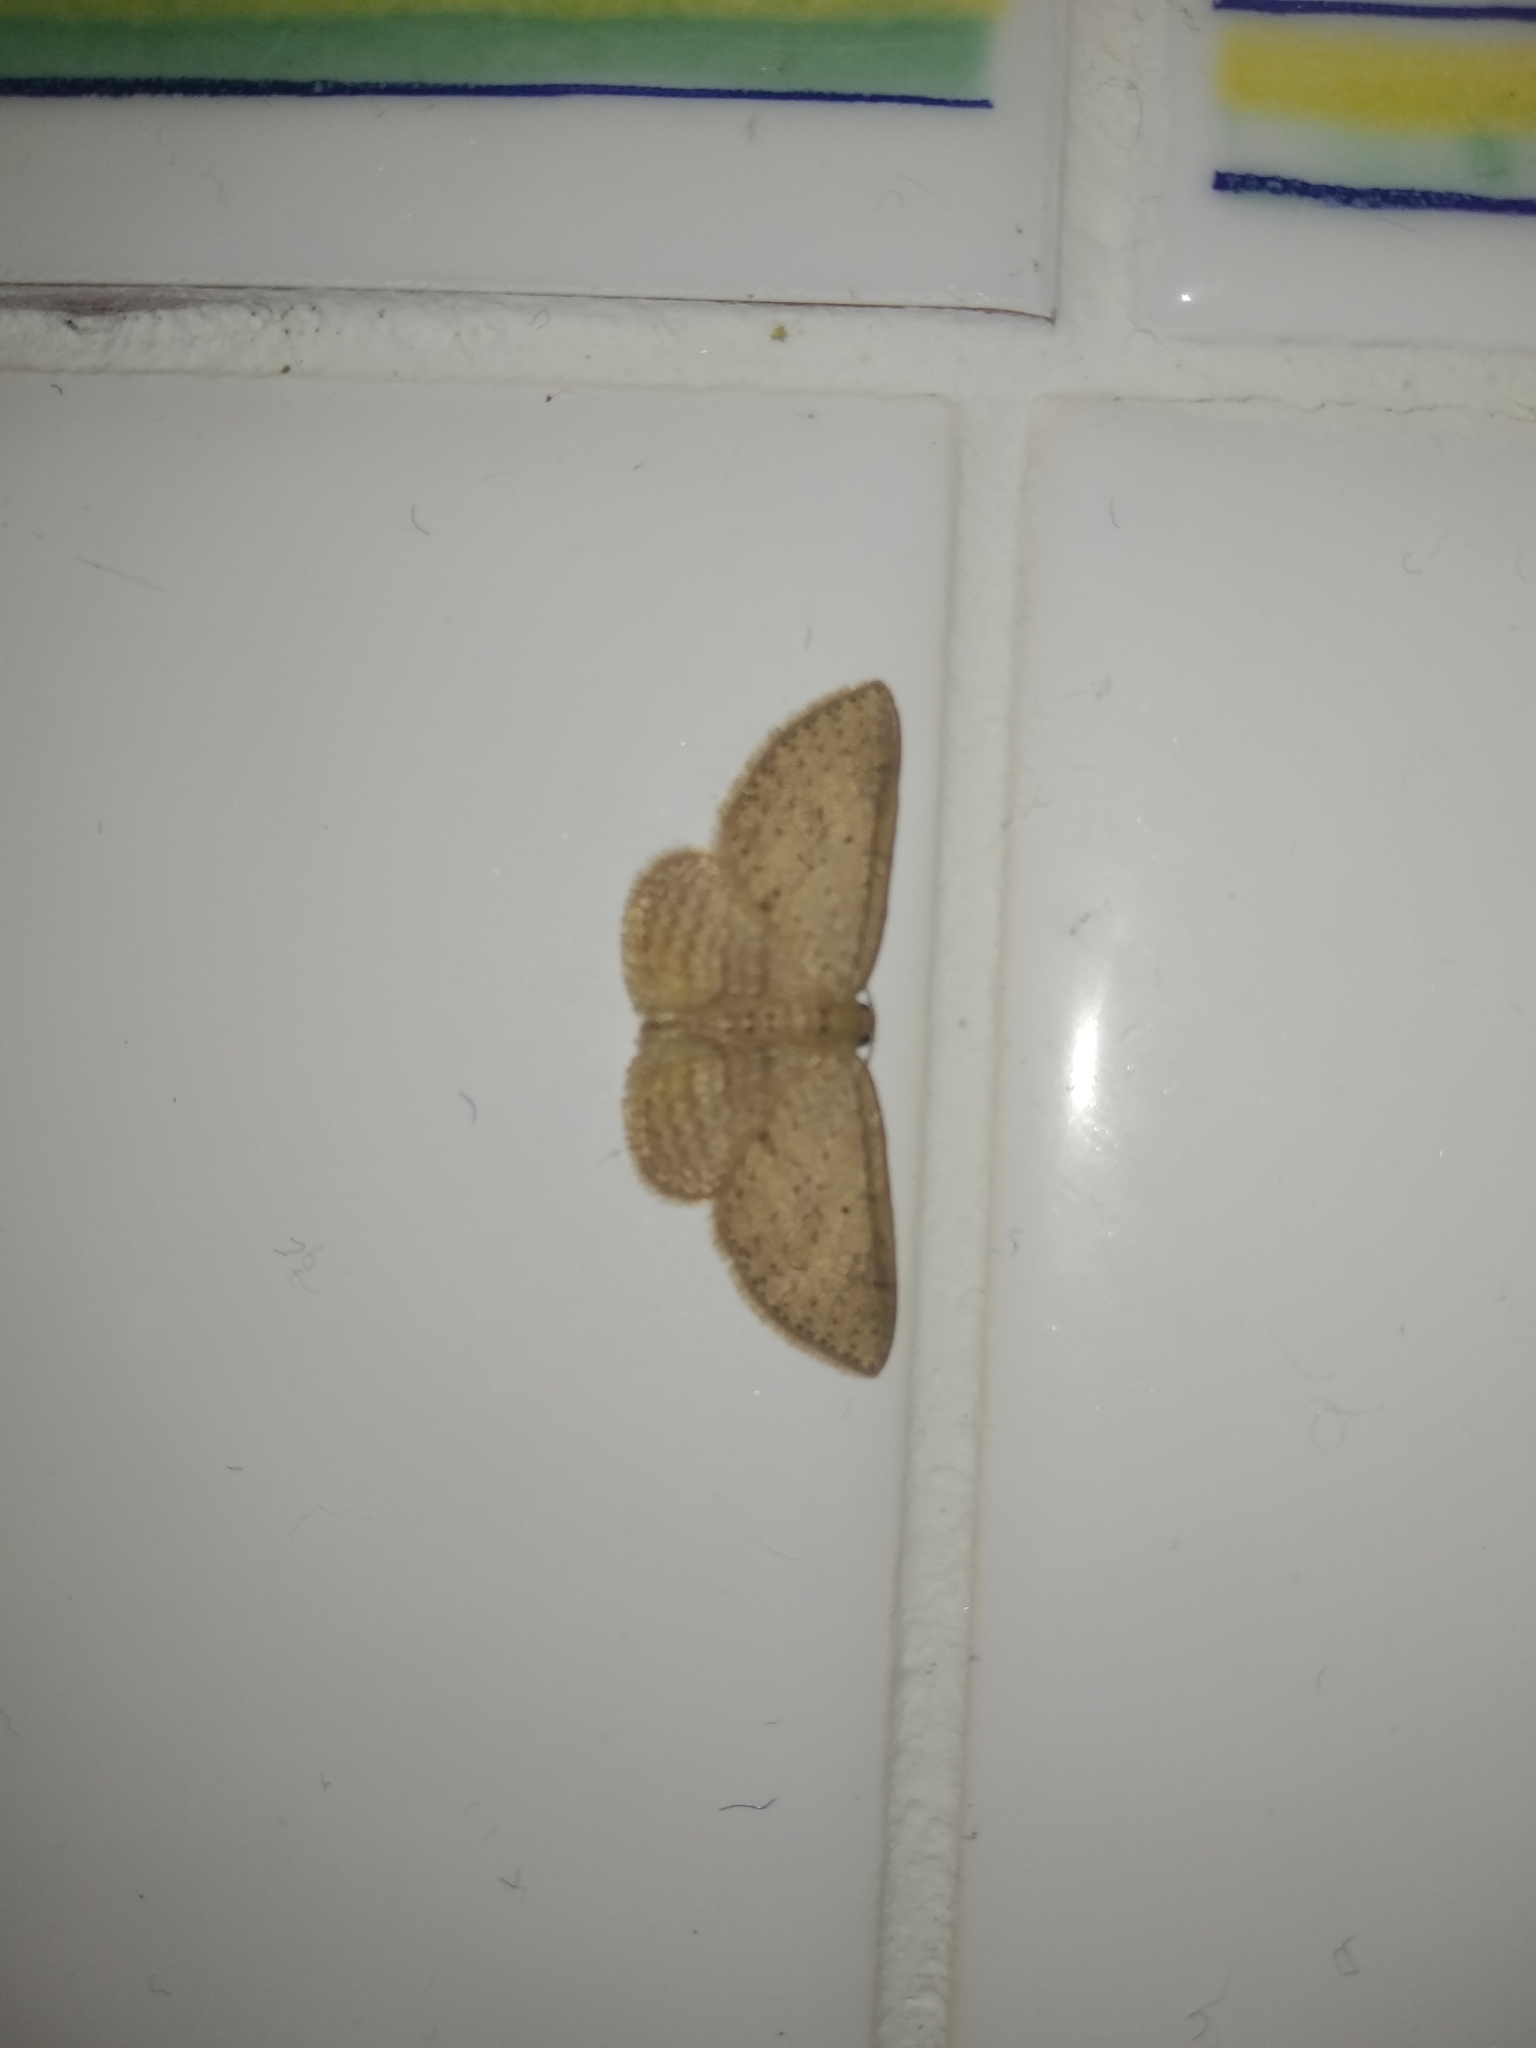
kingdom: Animalia
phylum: Arthropoda
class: Insecta
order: Lepidoptera
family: Geometridae
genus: Poecilasthena
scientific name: Poecilasthena schistaria
